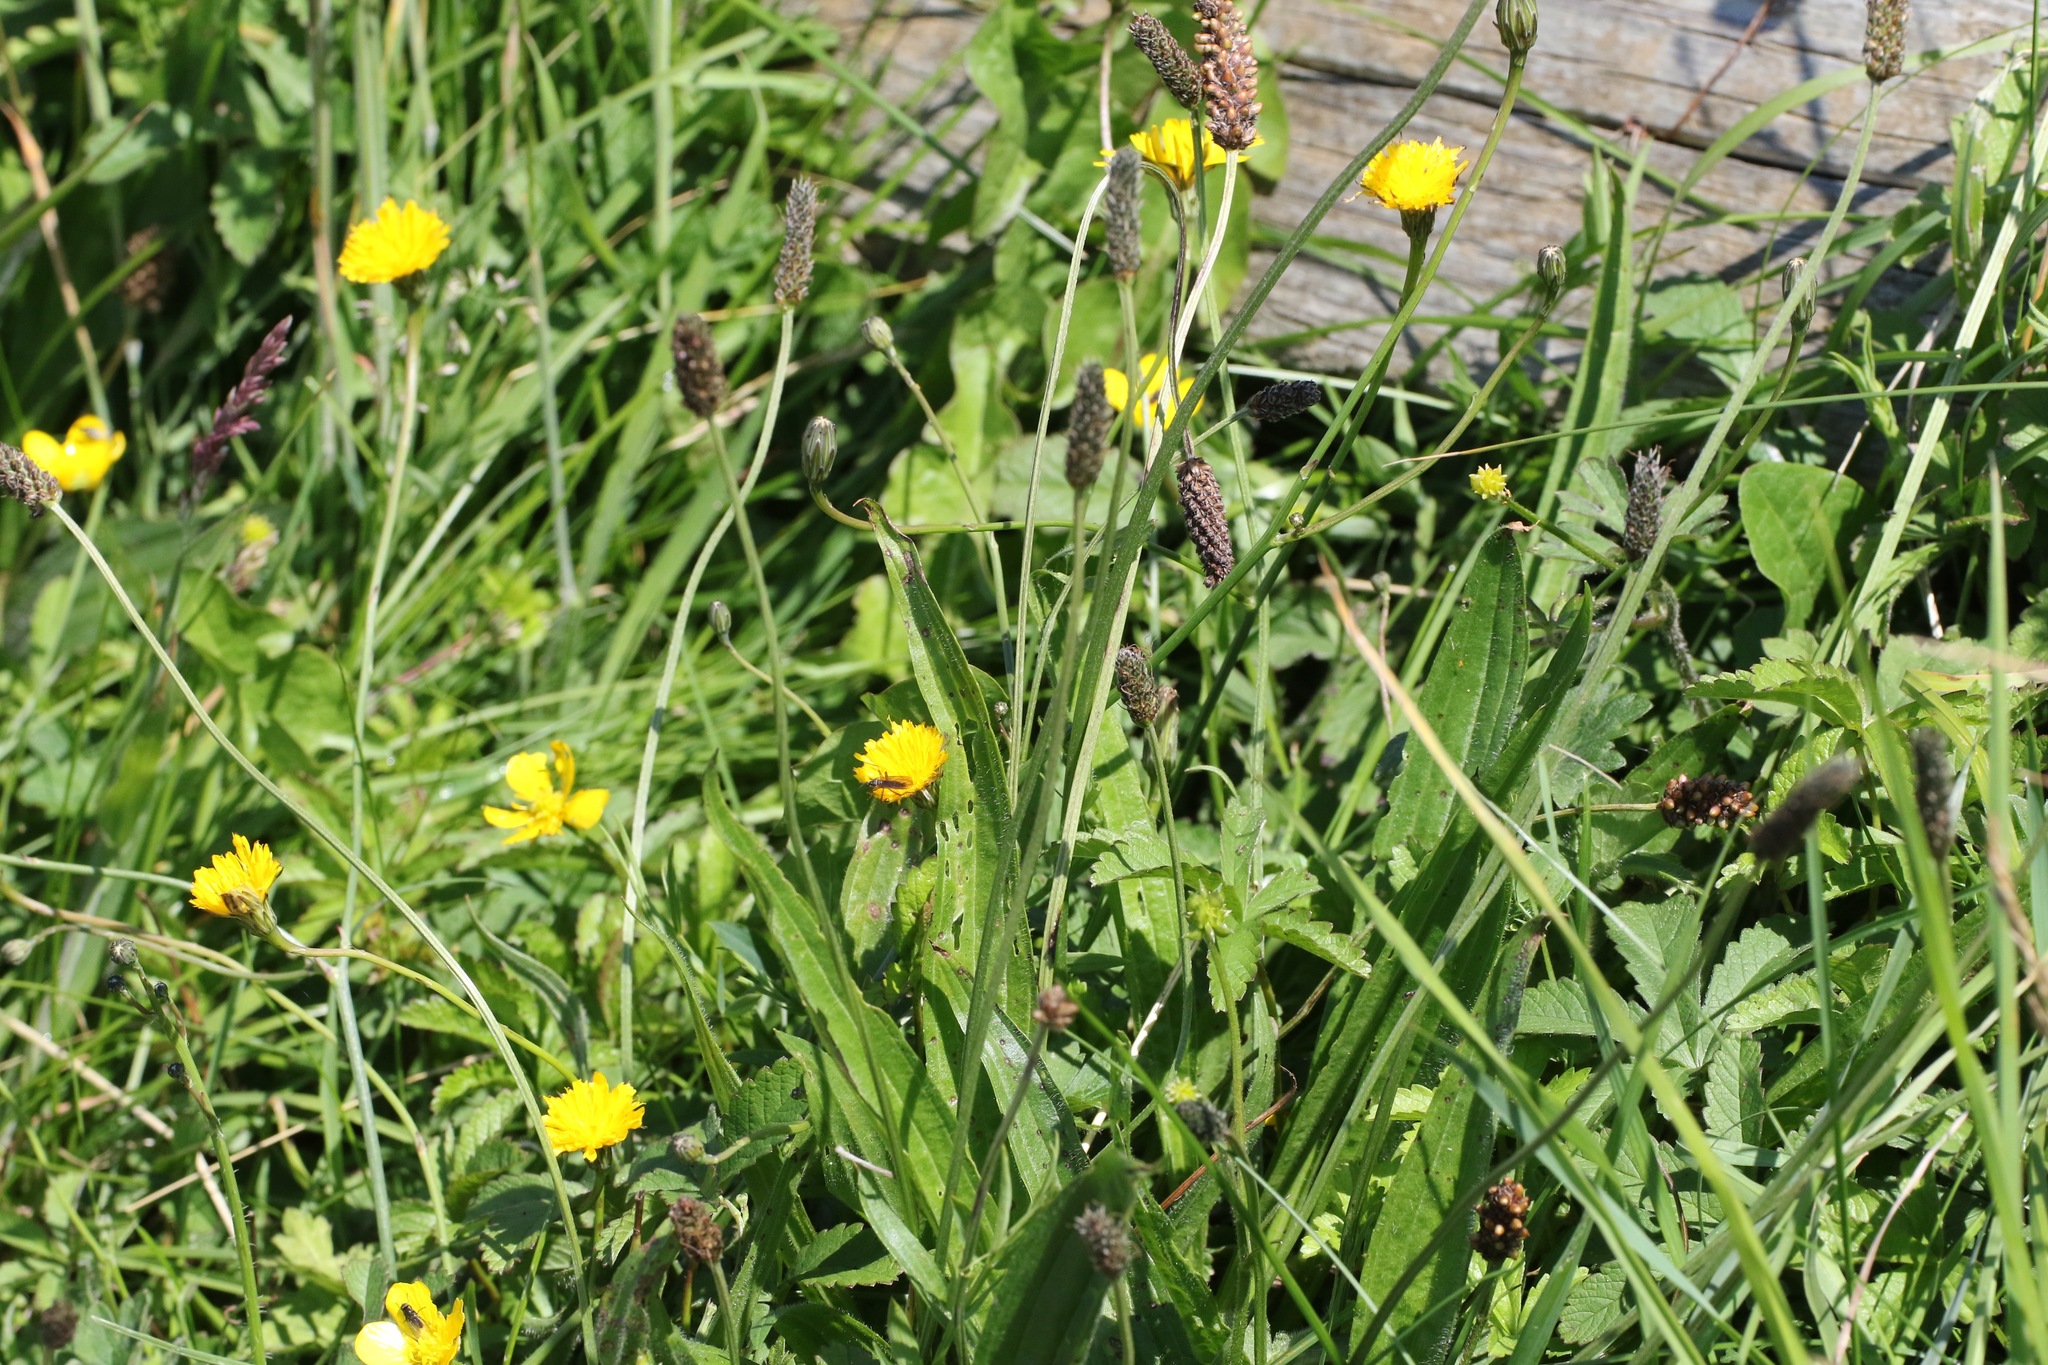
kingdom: Plantae
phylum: Tracheophyta
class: Magnoliopsida
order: Lamiales
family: Plantaginaceae
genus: Plantago
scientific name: Plantago lanceolata
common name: Ribwort plantain
